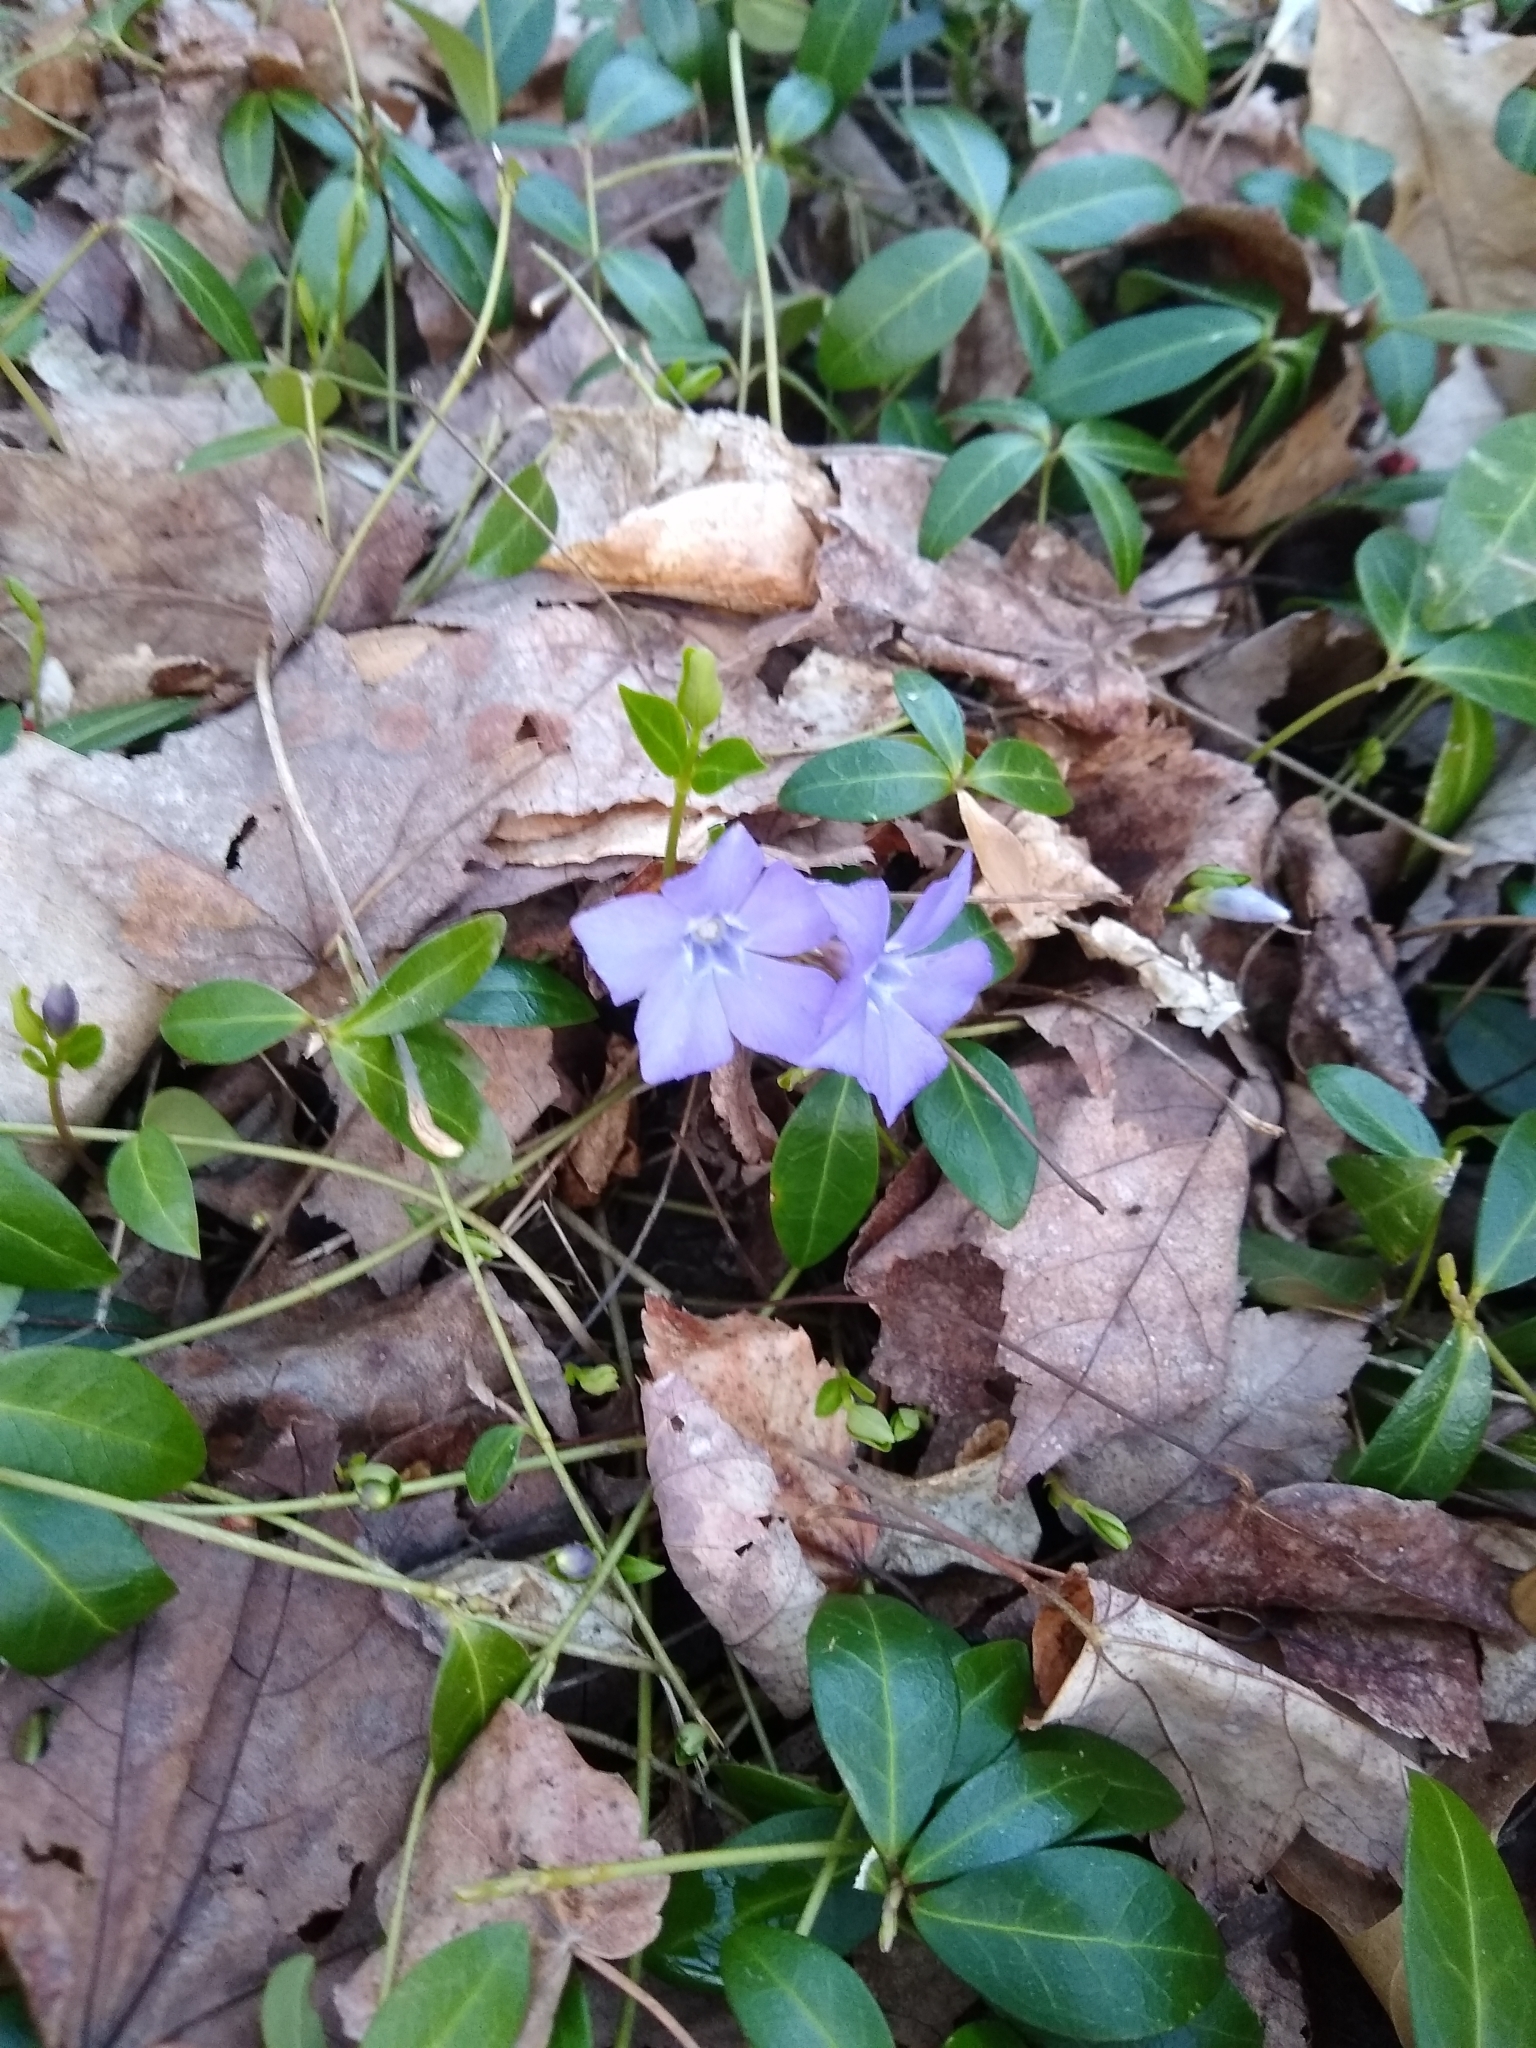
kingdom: Plantae
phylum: Tracheophyta
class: Magnoliopsida
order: Gentianales
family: Apocynaceae
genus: Vinca
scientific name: Vinca minor
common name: Lesser periwinkle
